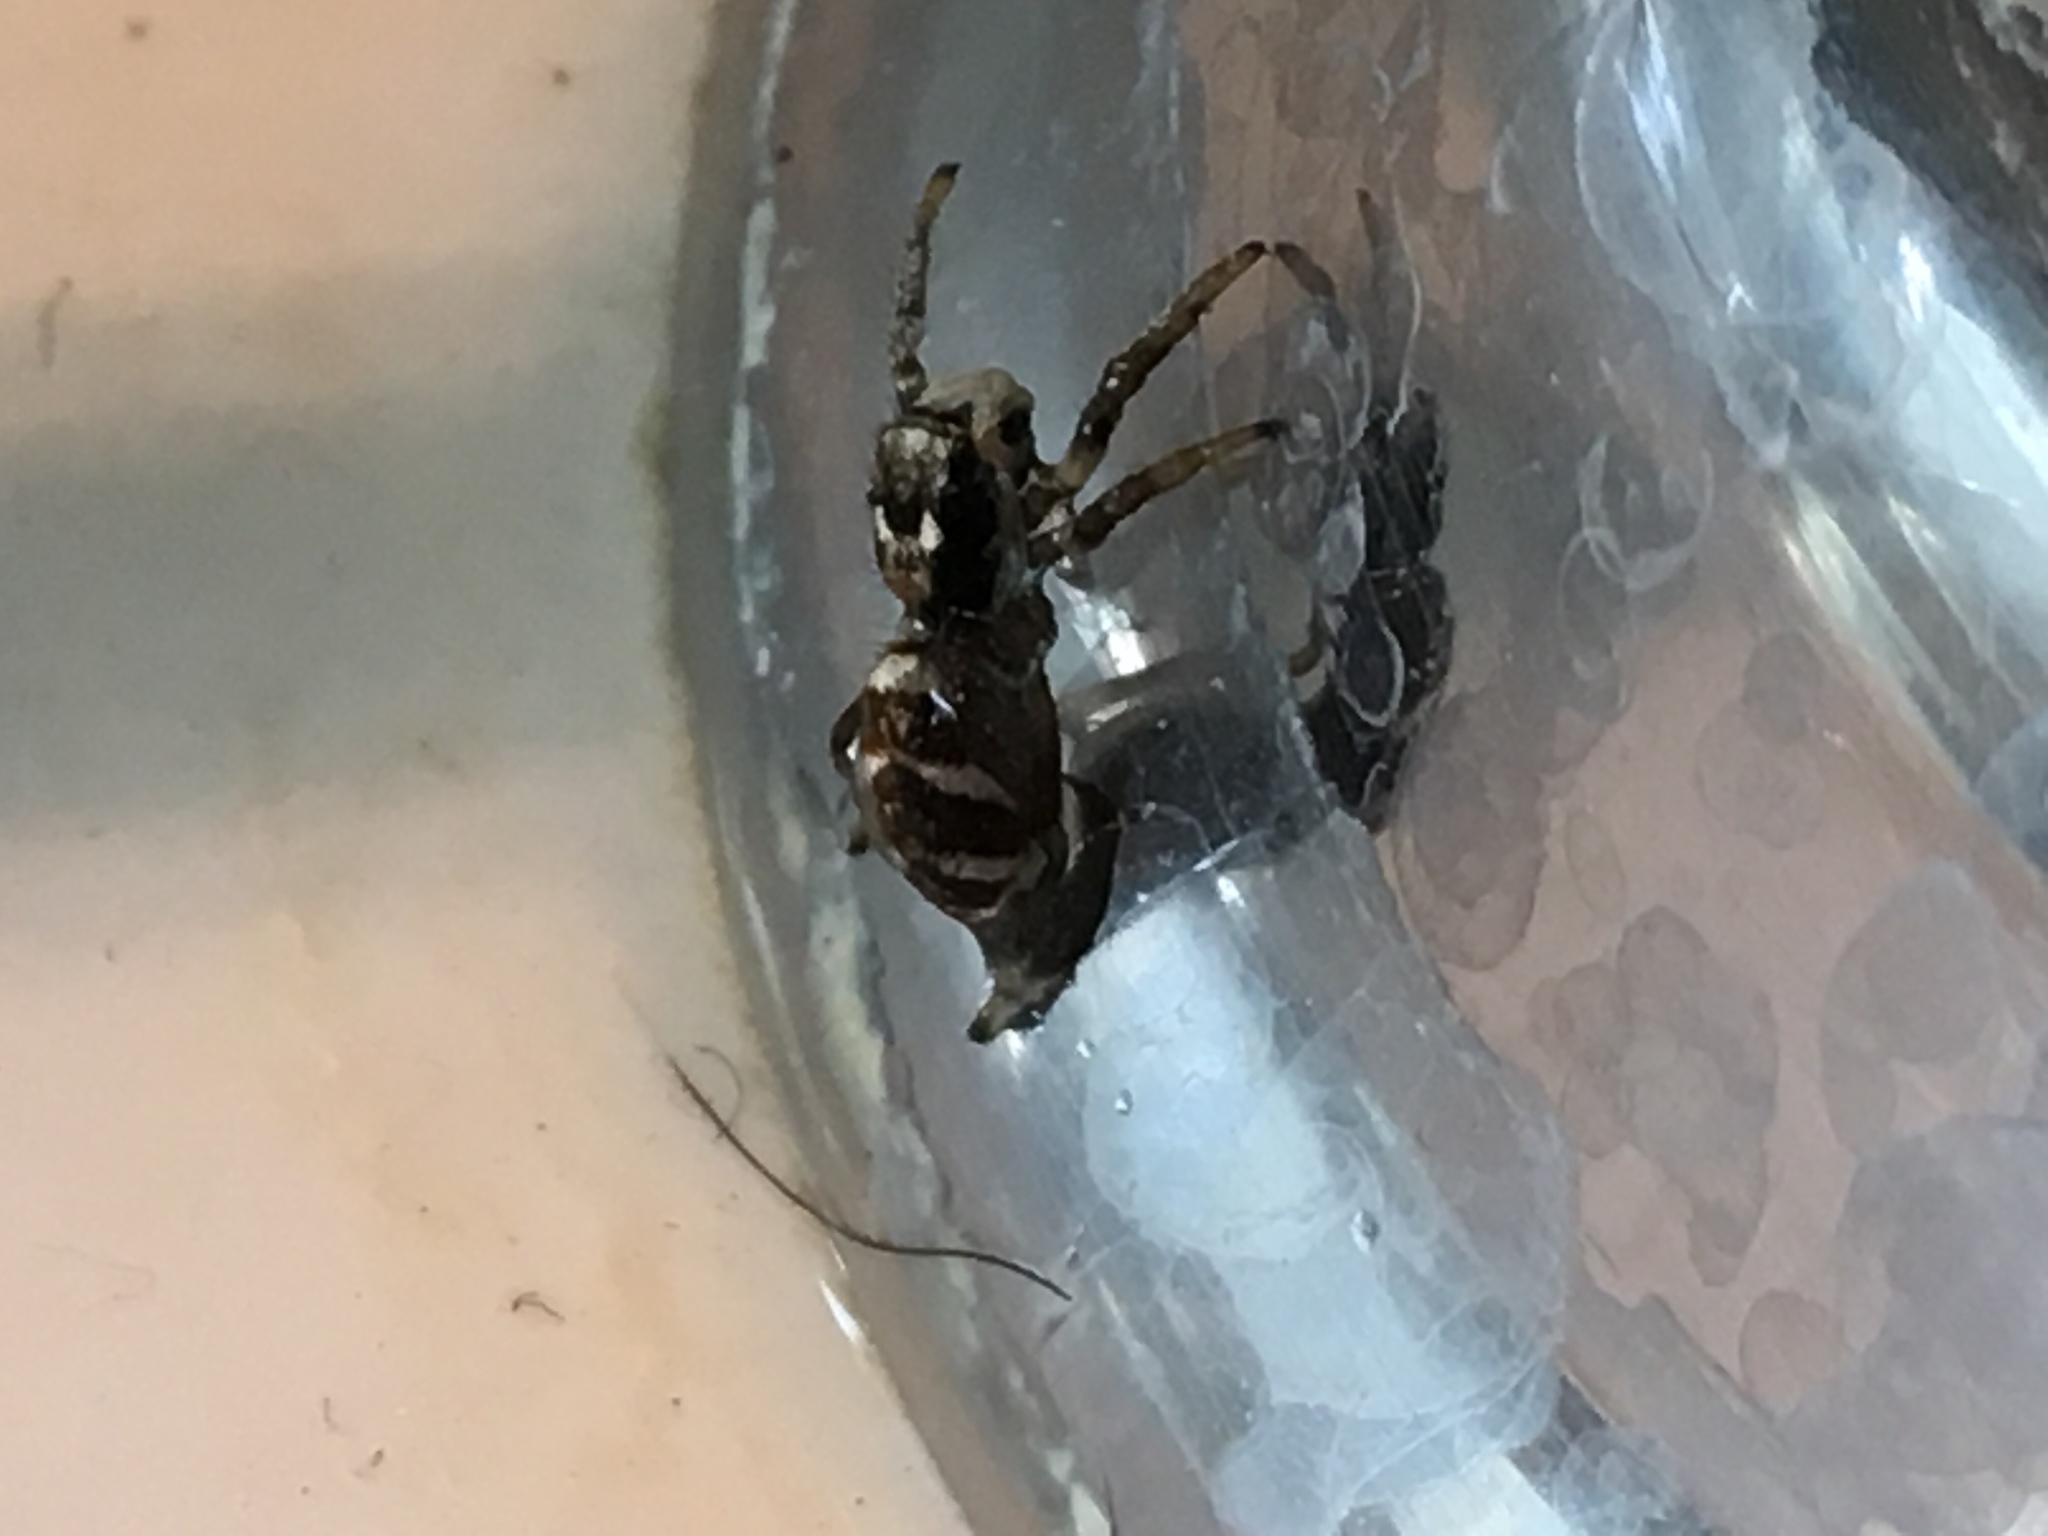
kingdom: Animalia
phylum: Arthropoda
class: Arachnida
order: Araneae
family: Salticidae
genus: Salticus
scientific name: Salticus scenicus
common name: Zebra jumper
